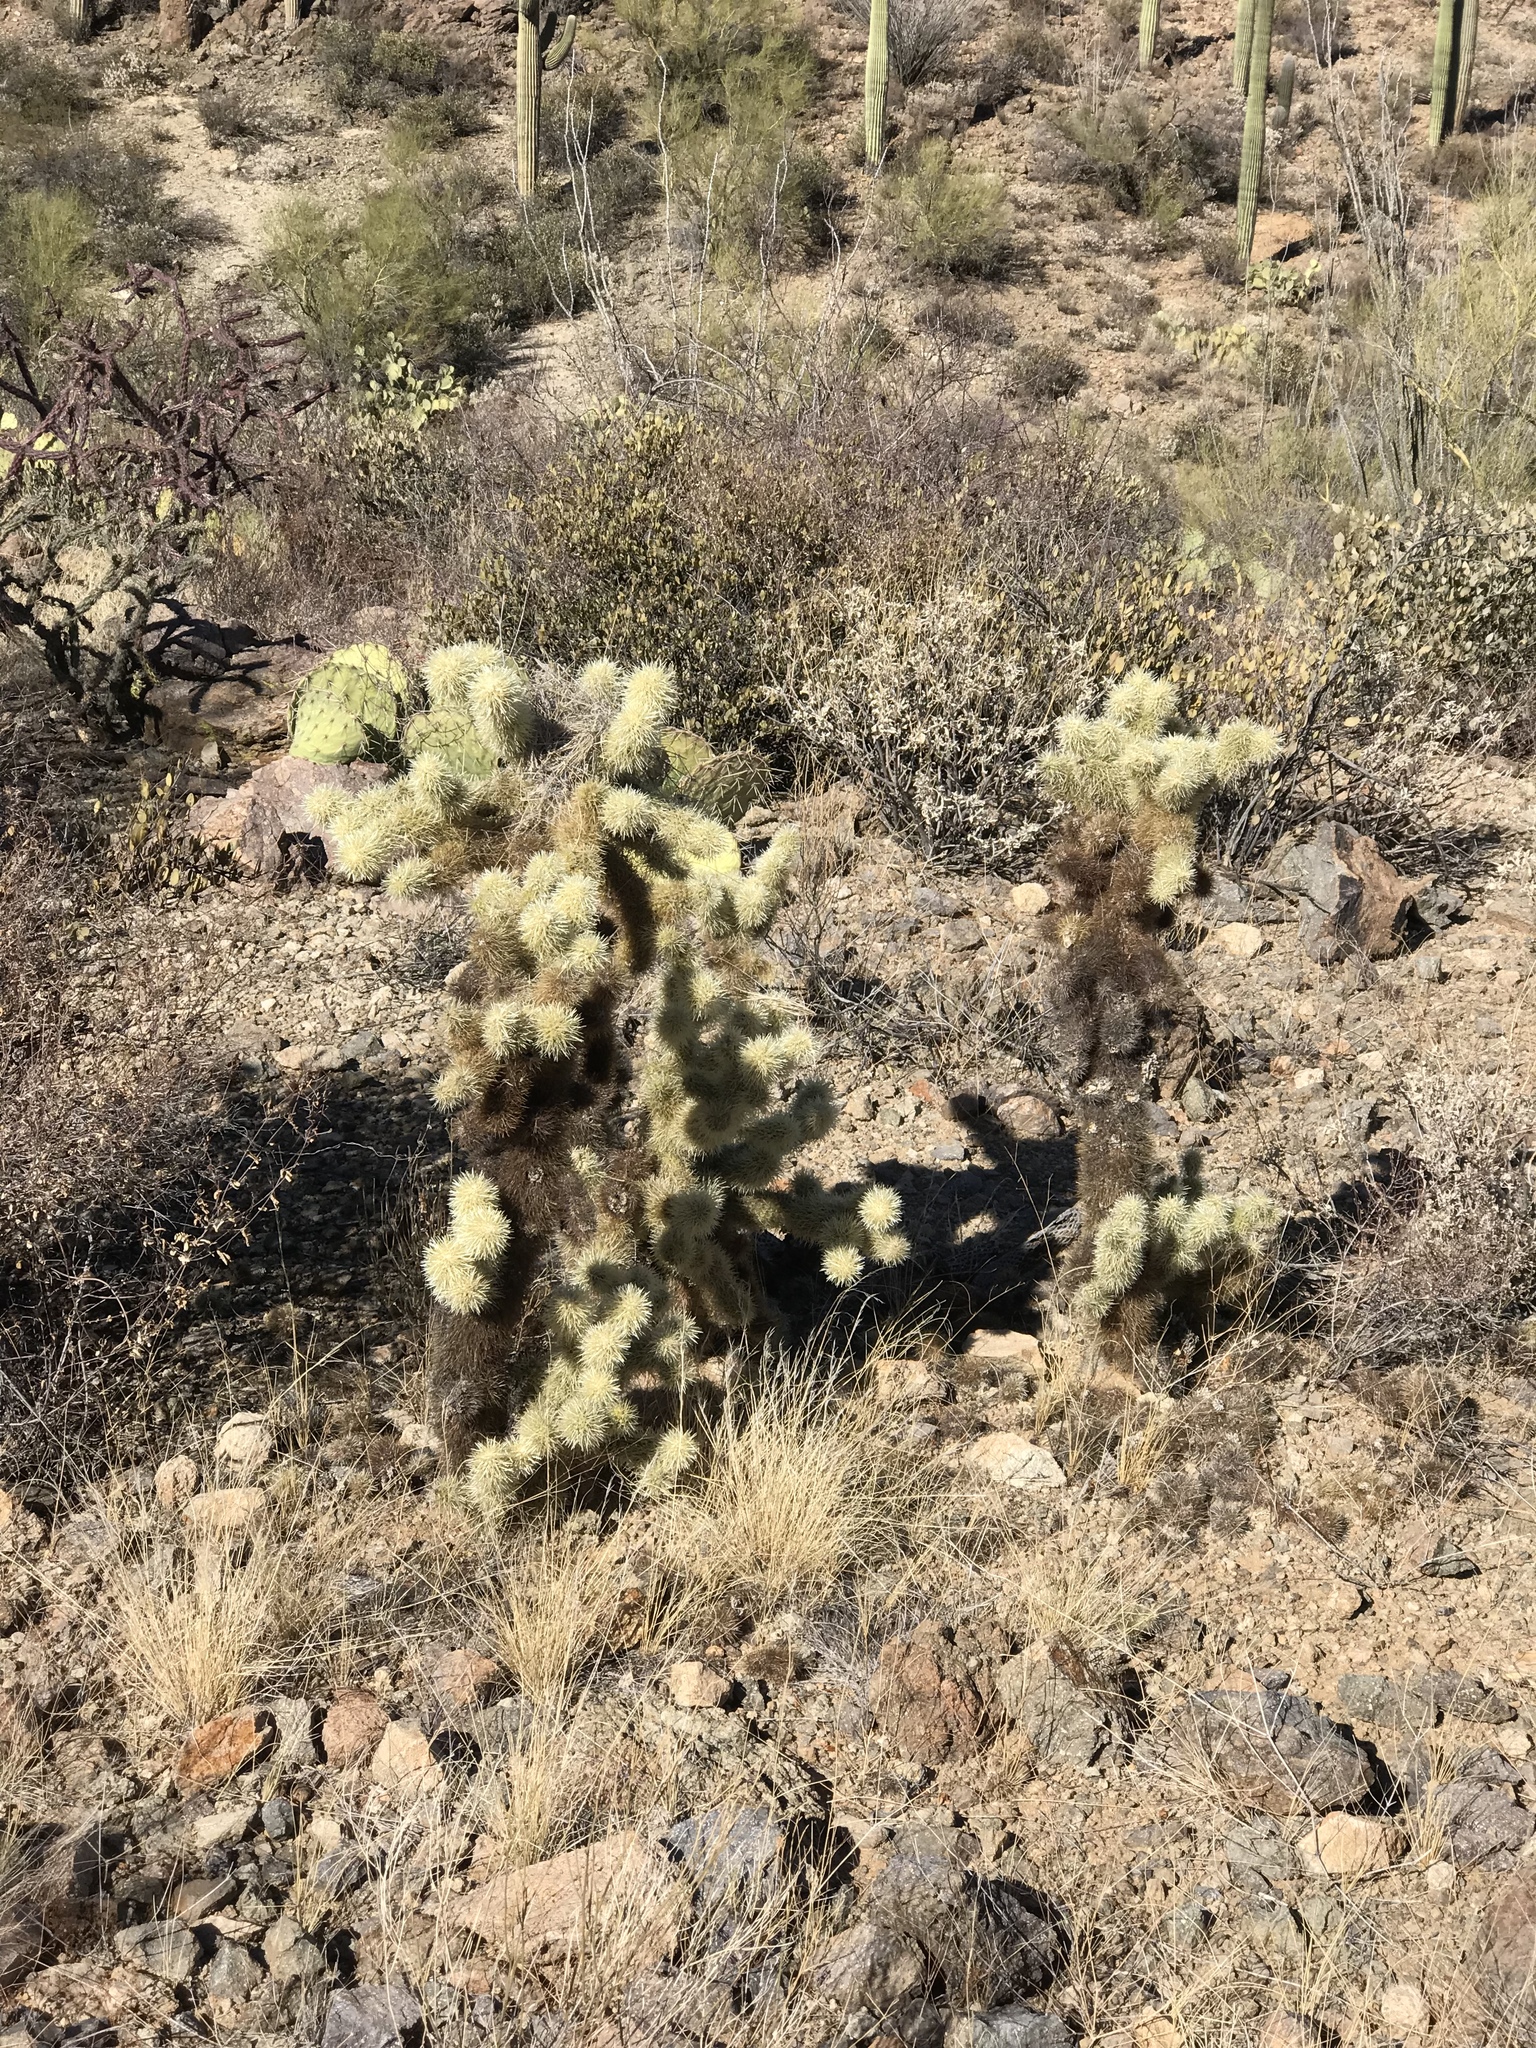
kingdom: Plantae
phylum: Tracheophyta
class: Magnoliopsida
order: Caryophyllales
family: Cactaceae
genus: Cylindropuntia
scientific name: Cylindropuntia fosbergii
